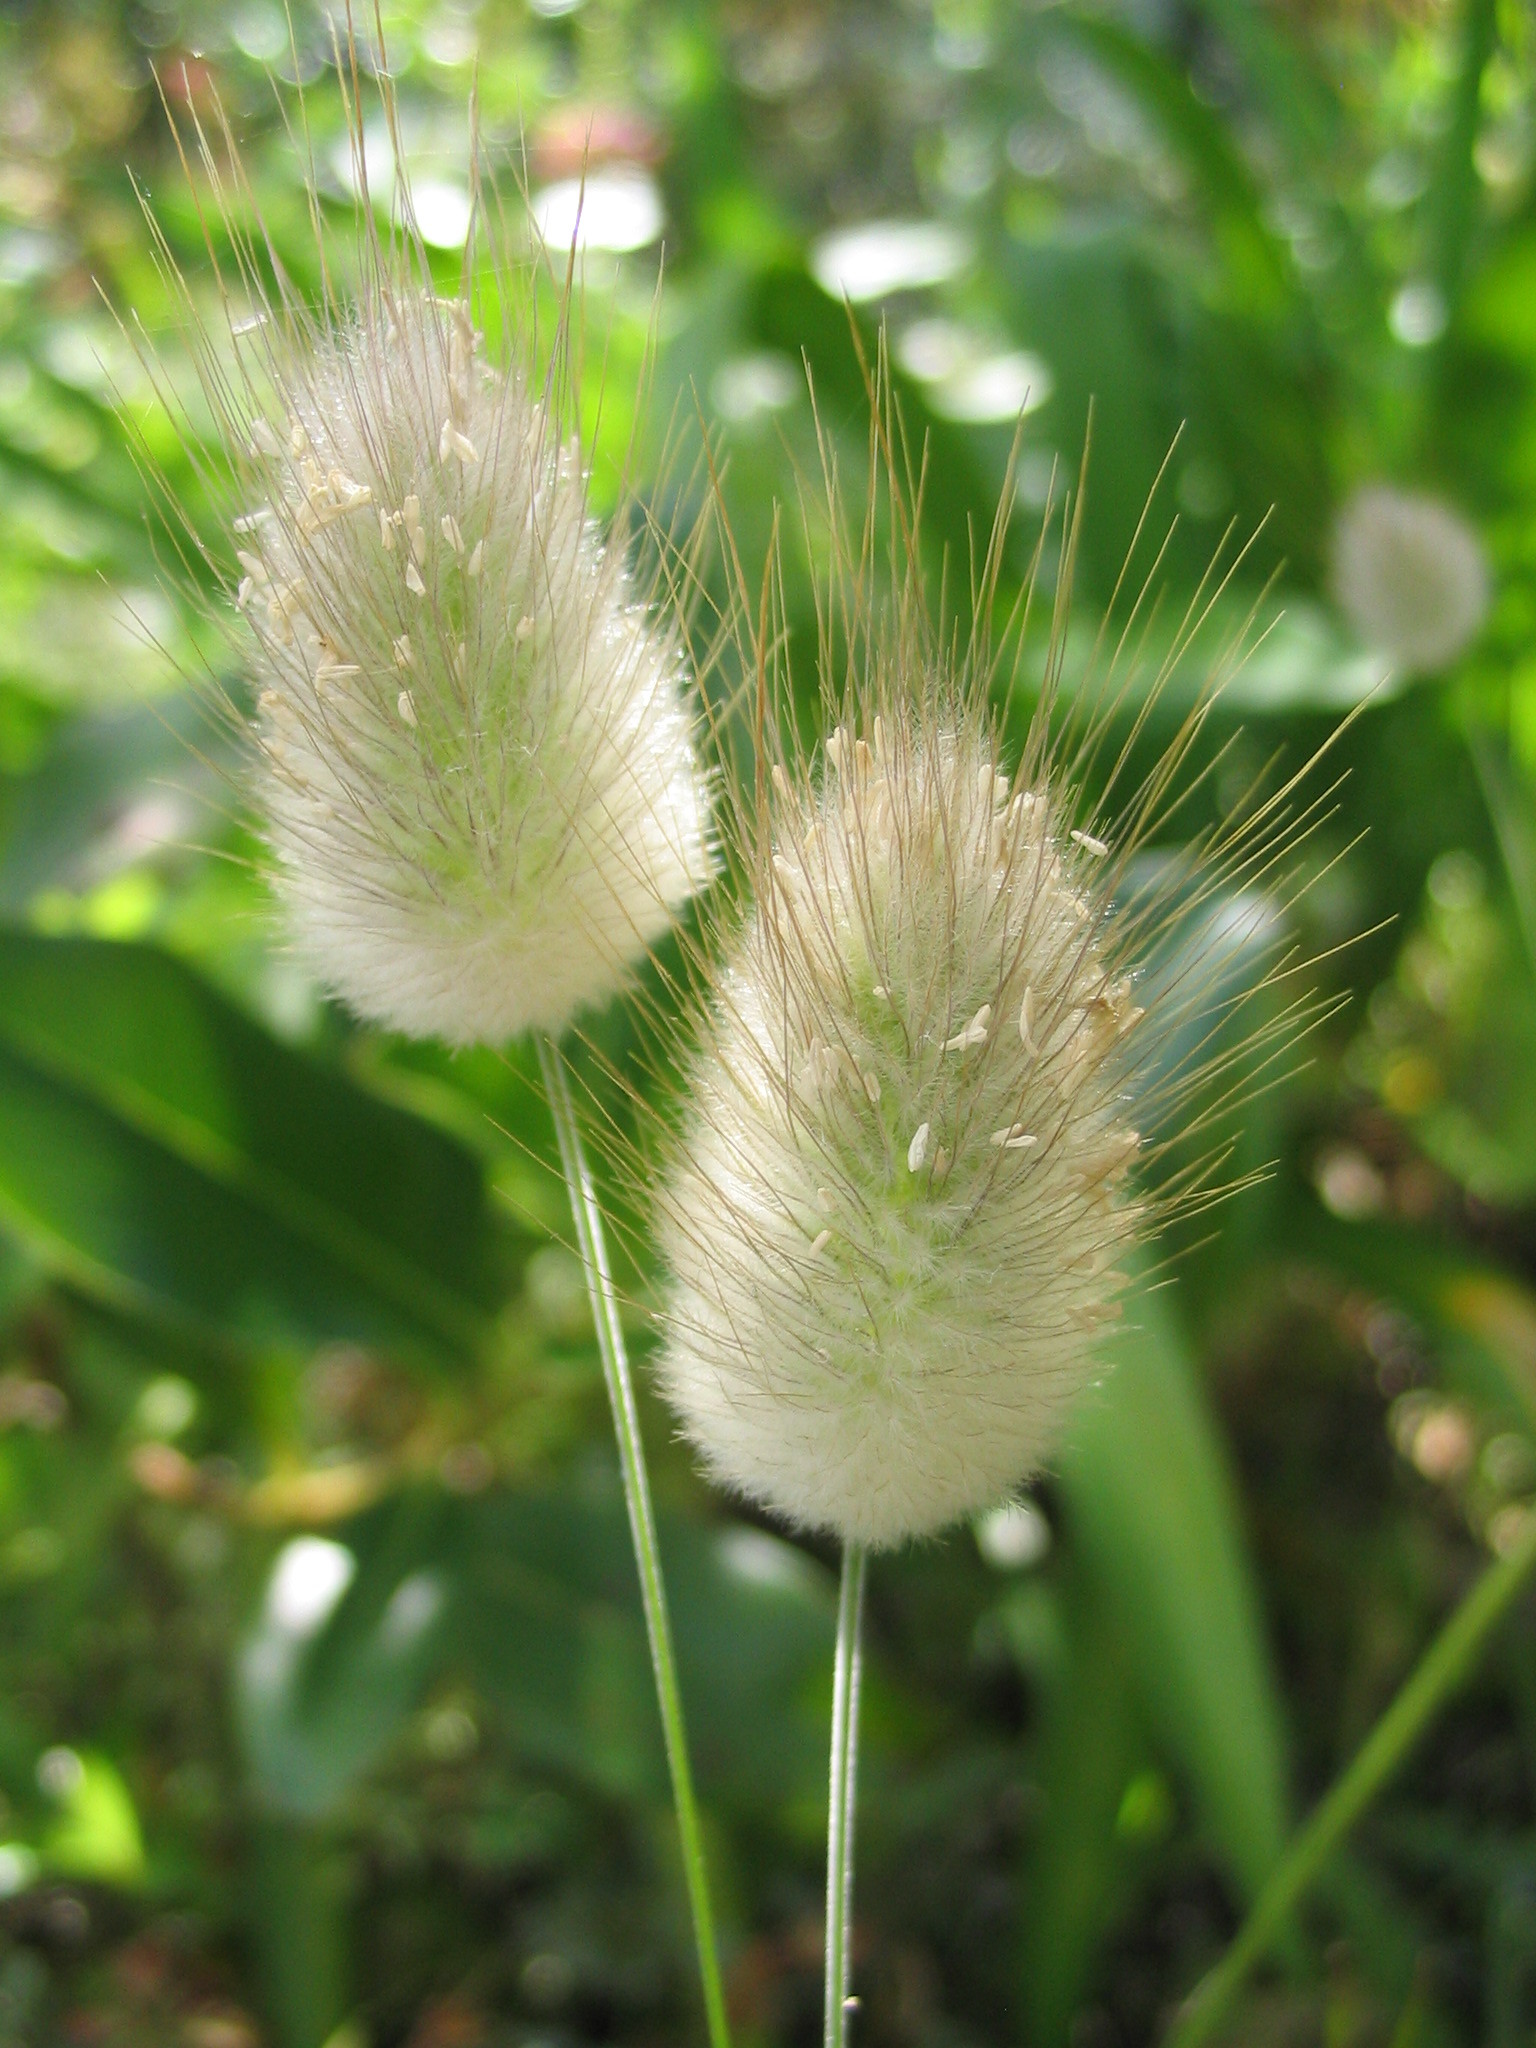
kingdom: Plantae
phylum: Tracheophyta
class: Liliopsida
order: Poales
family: Poaceae
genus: Lagurus
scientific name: Lagurus ovatus
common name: Hare's-tail
